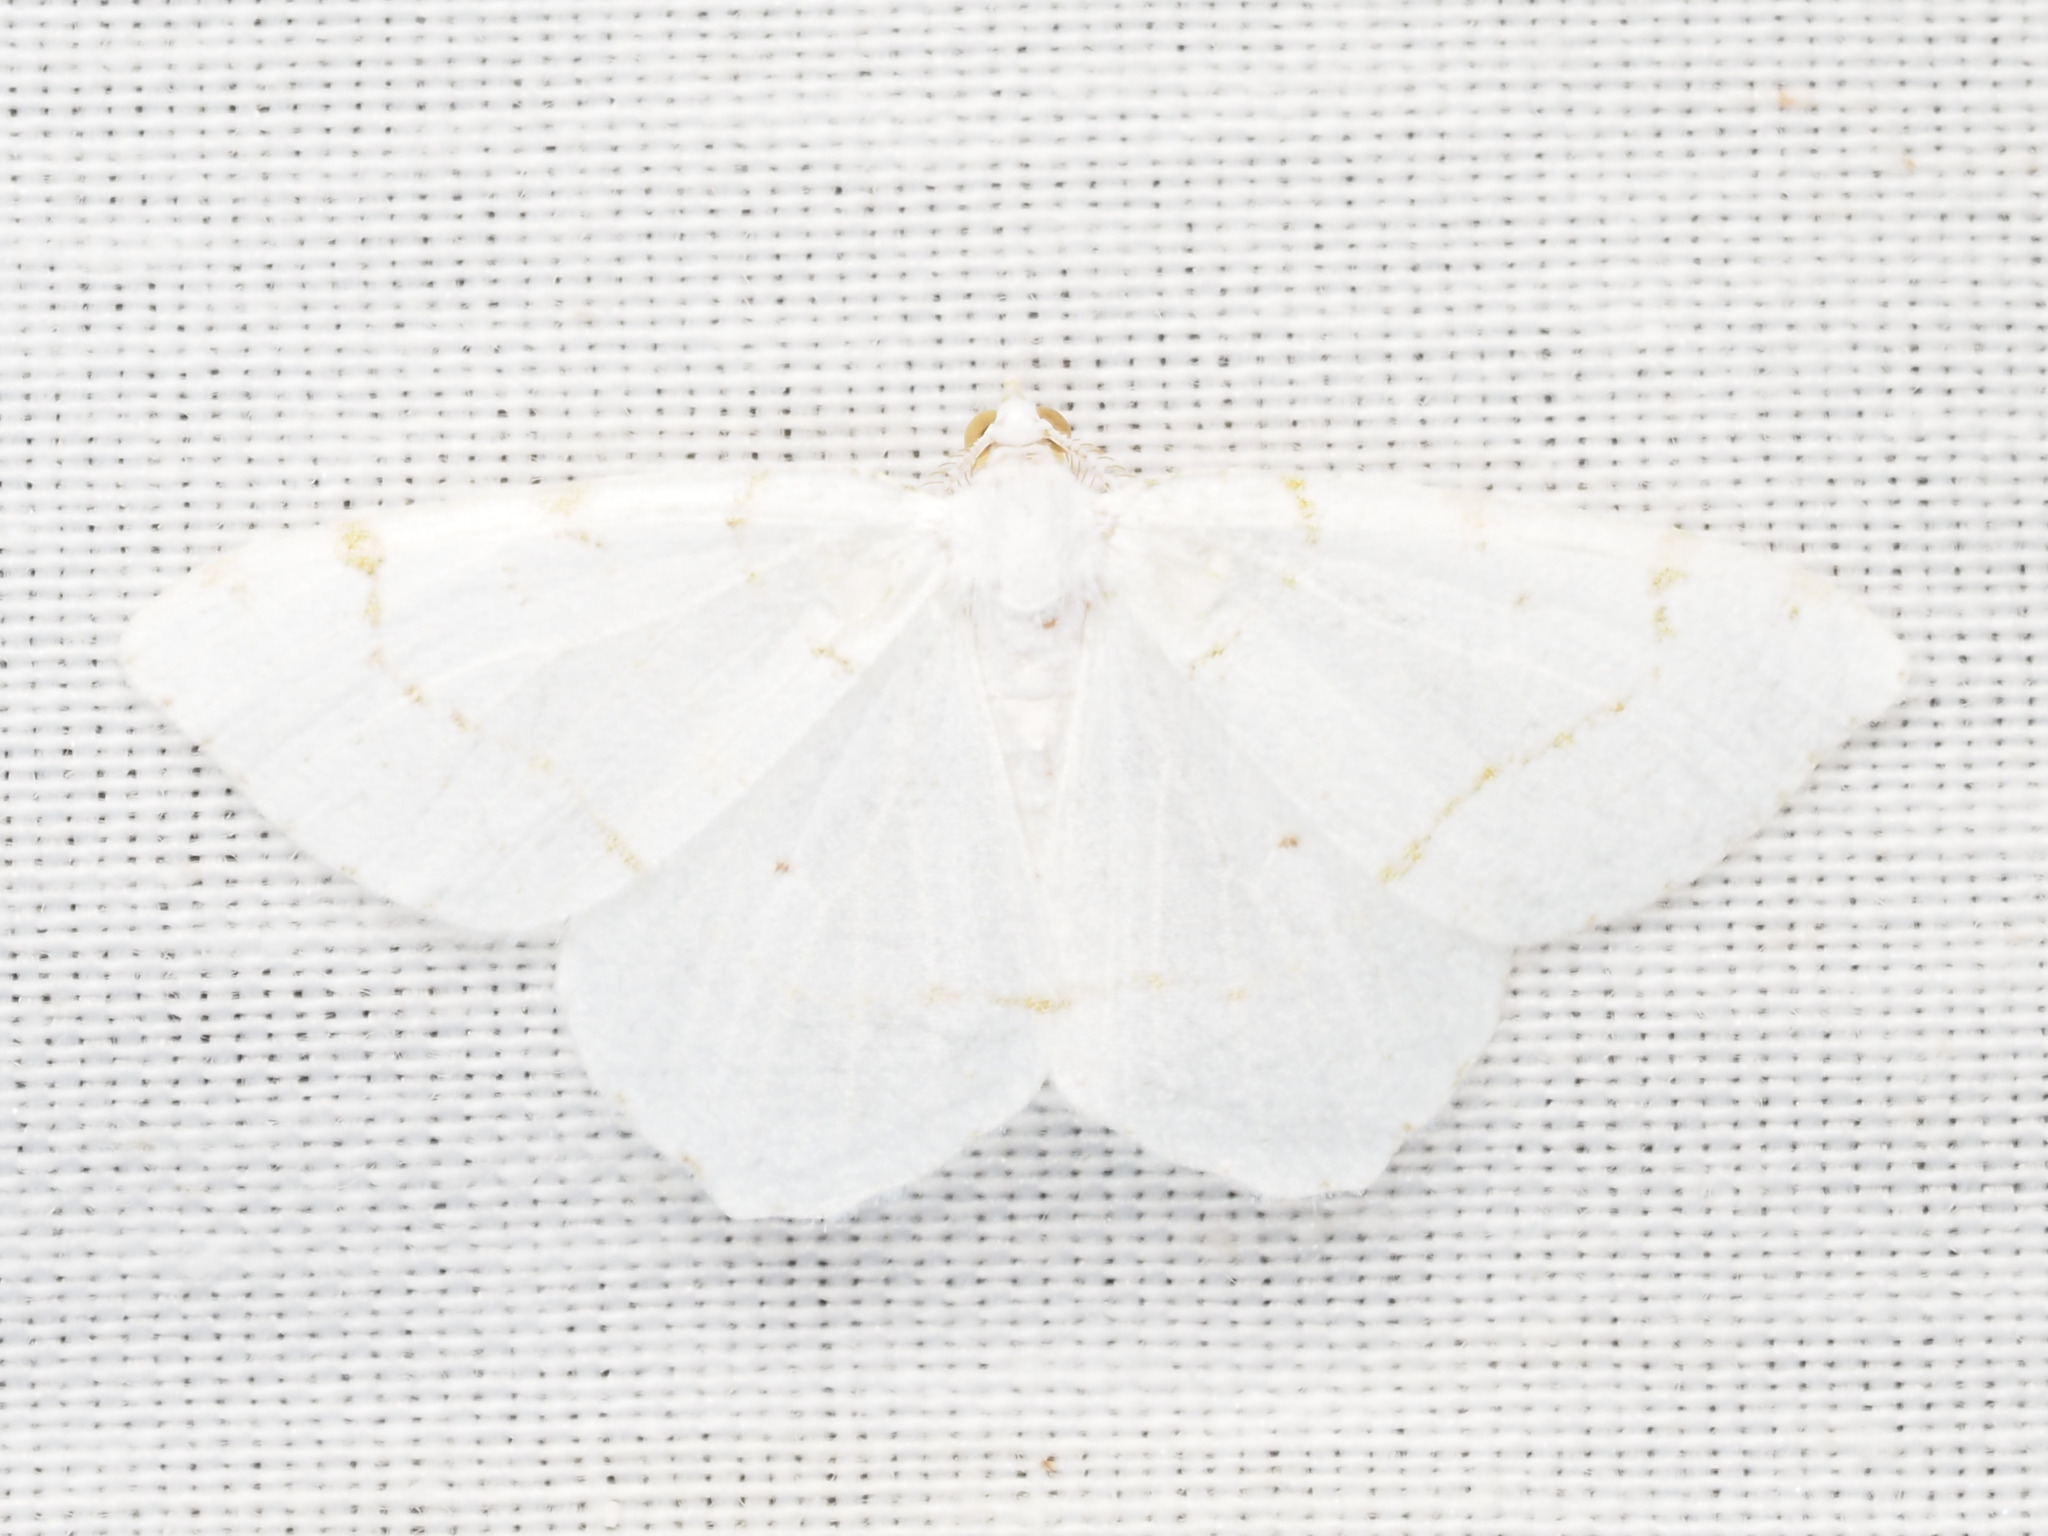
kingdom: Animalia
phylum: Arthropoda
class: Insecta
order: Lepidoptera
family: Geometridae
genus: Macaria
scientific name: Macaria pustularia
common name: Lesser maple spanworm moth
